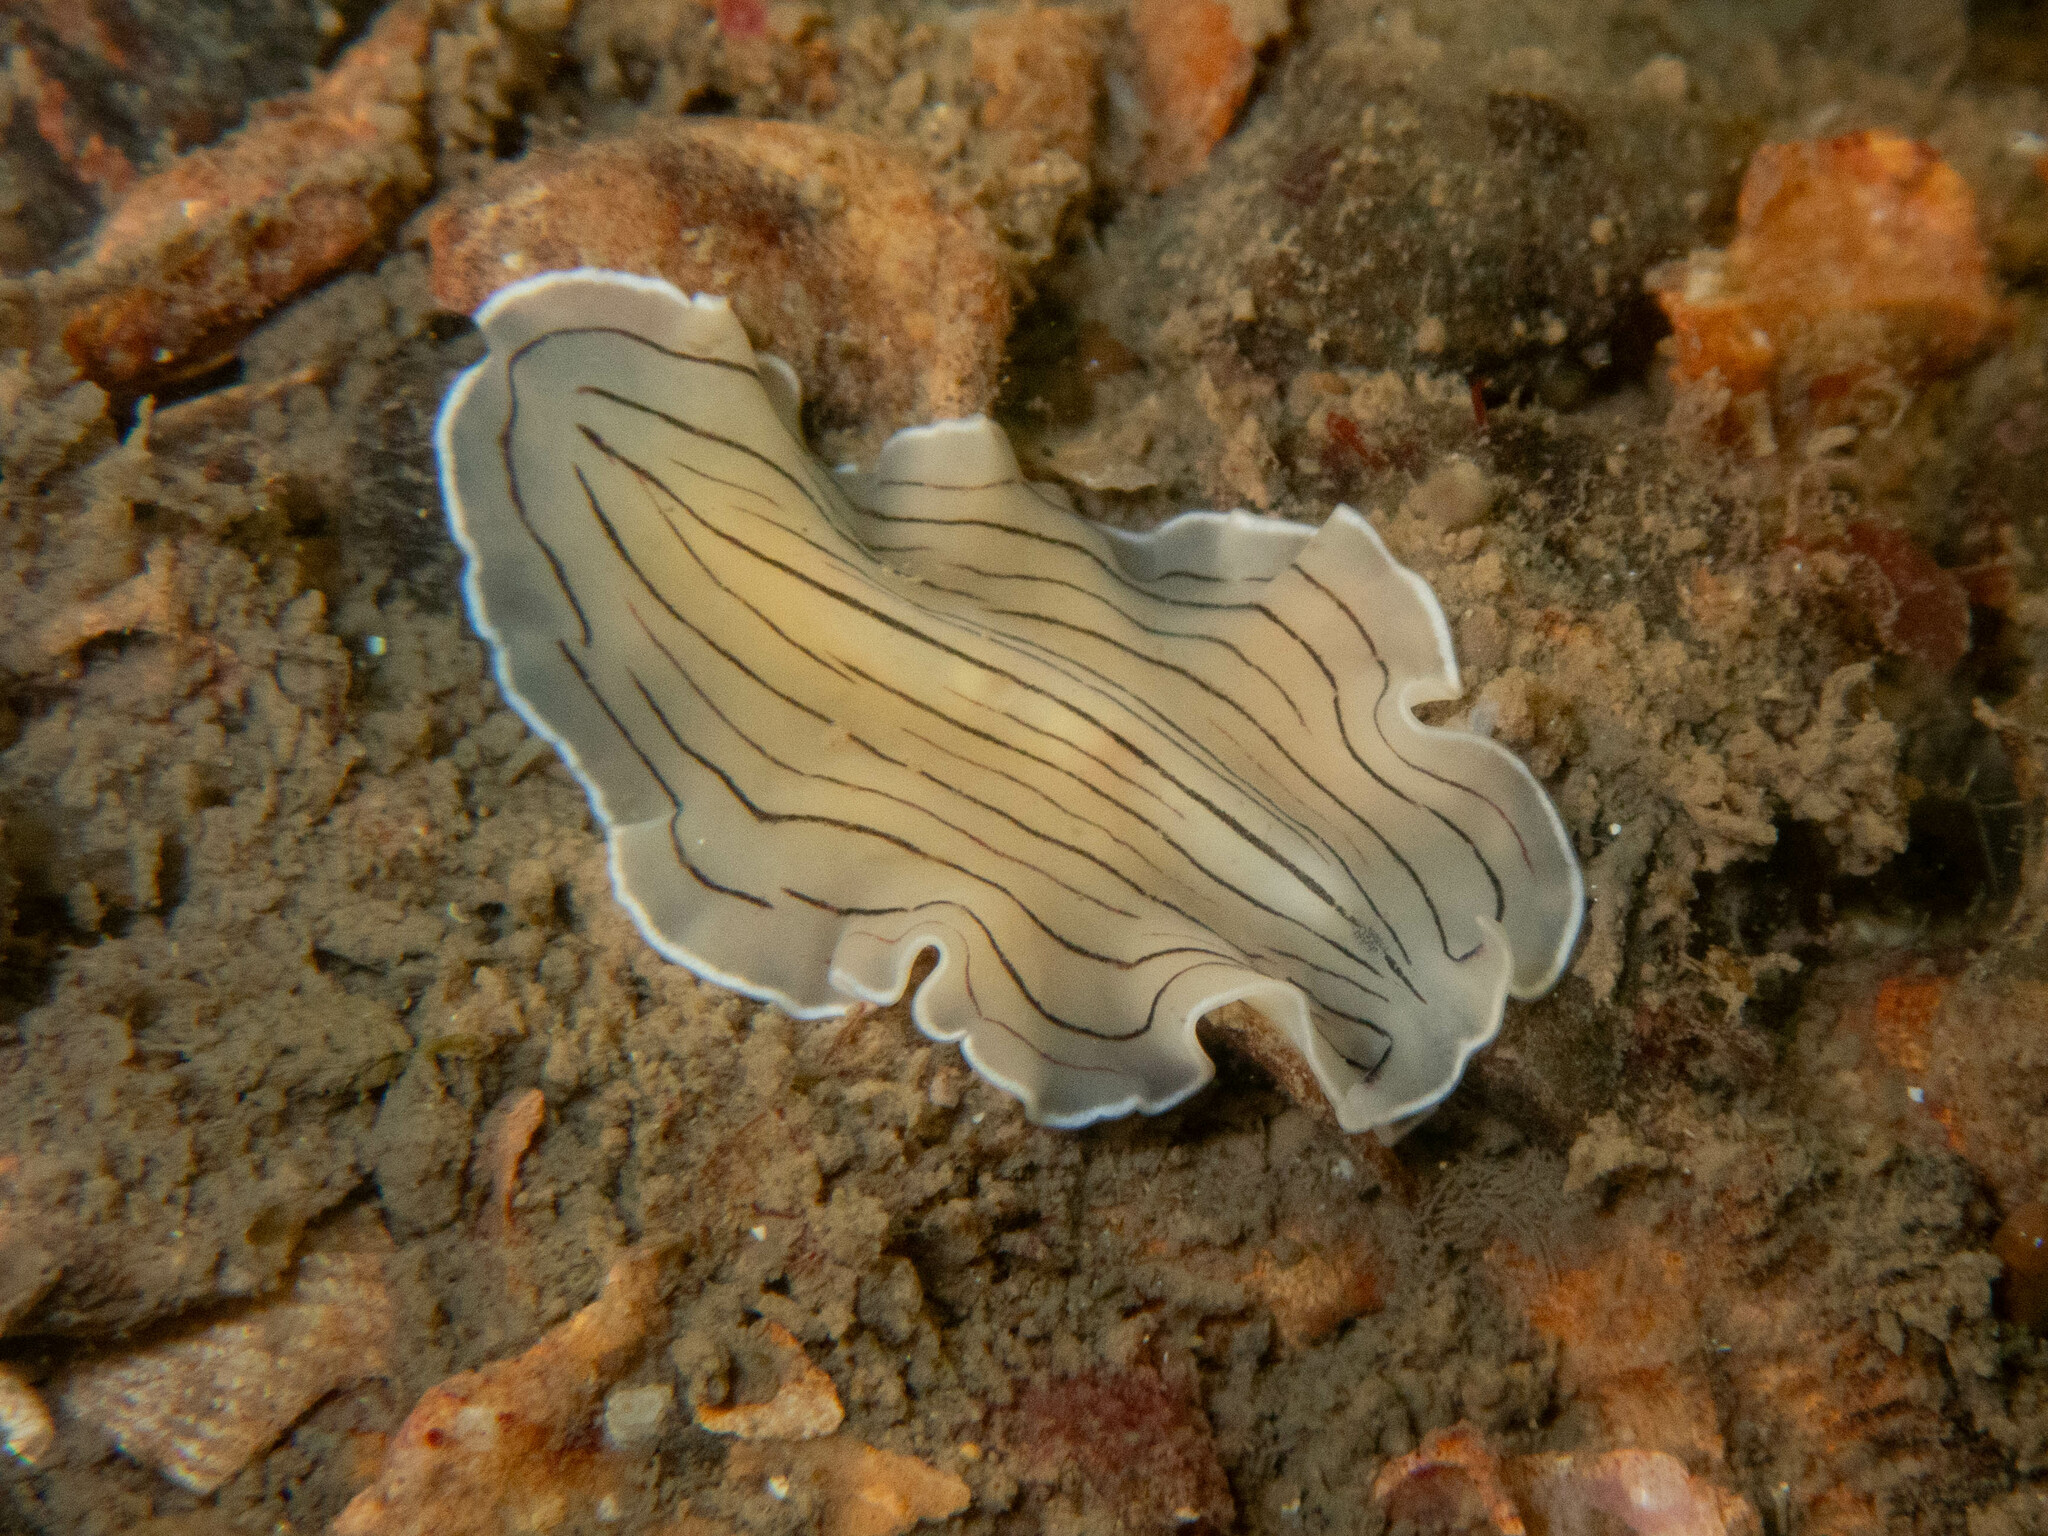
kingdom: Animalia
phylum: Platyhelminthes
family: Euryleptidae
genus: Prostheceraeus
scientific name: Prostheceraeus vittatus
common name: Candy striped flatworm
